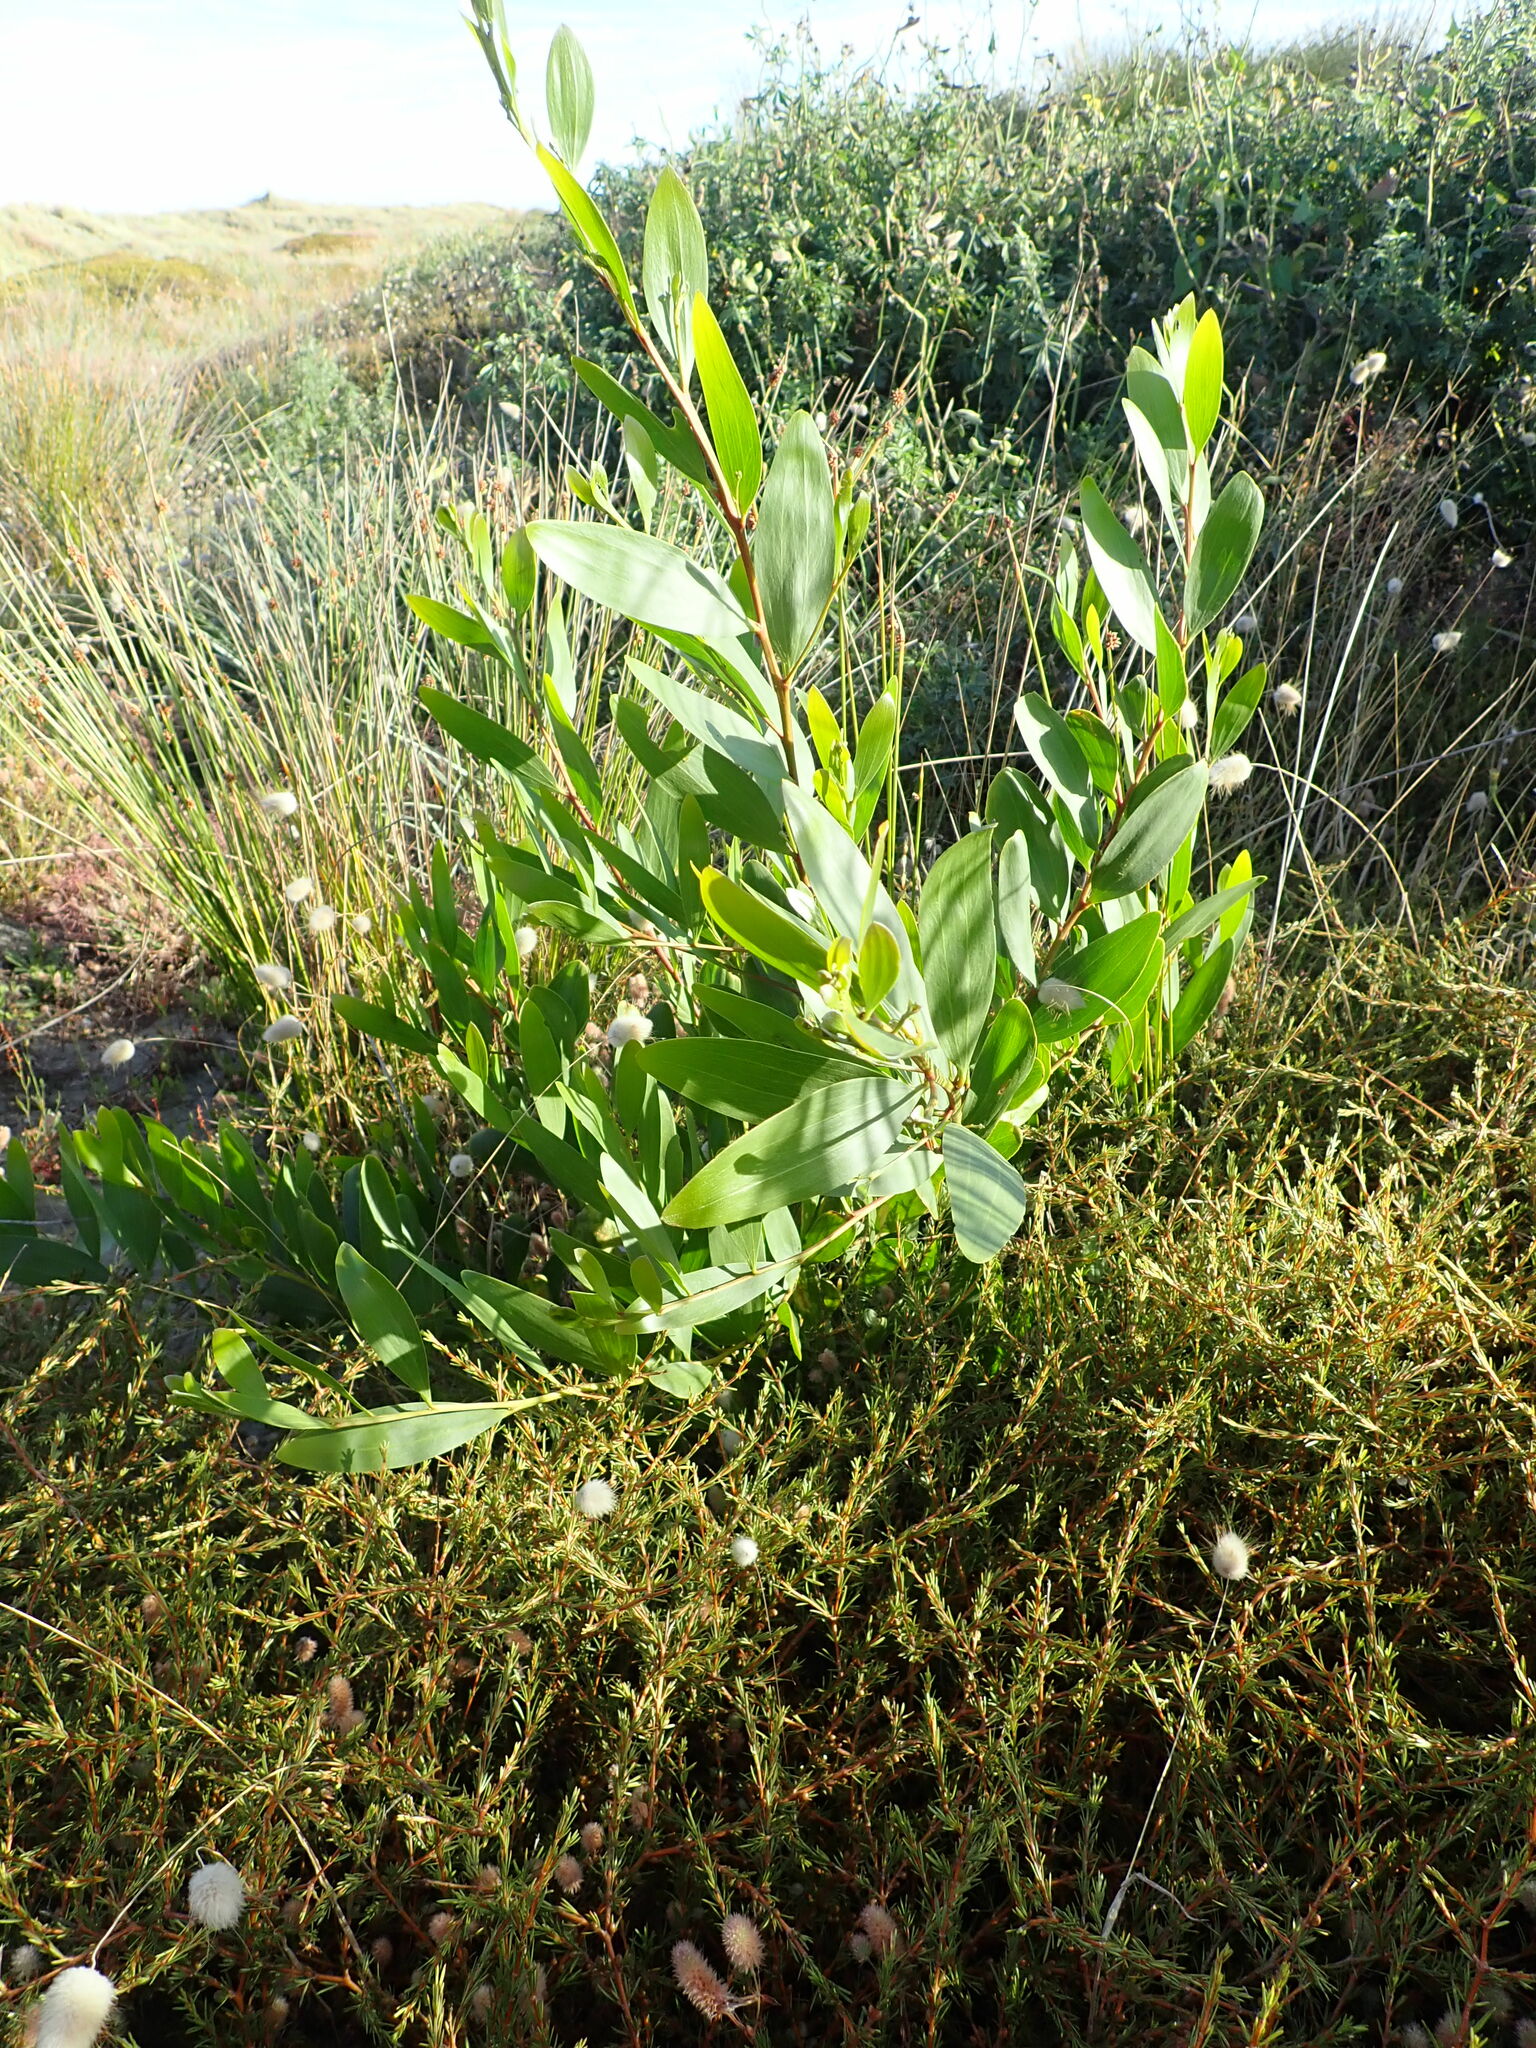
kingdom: Plantae
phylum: Tracheophyta
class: Magnoliopsida
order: Fabales
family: Fabaceae
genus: Acacia
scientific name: Acacia longifolia
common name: Sydney golden wattle
